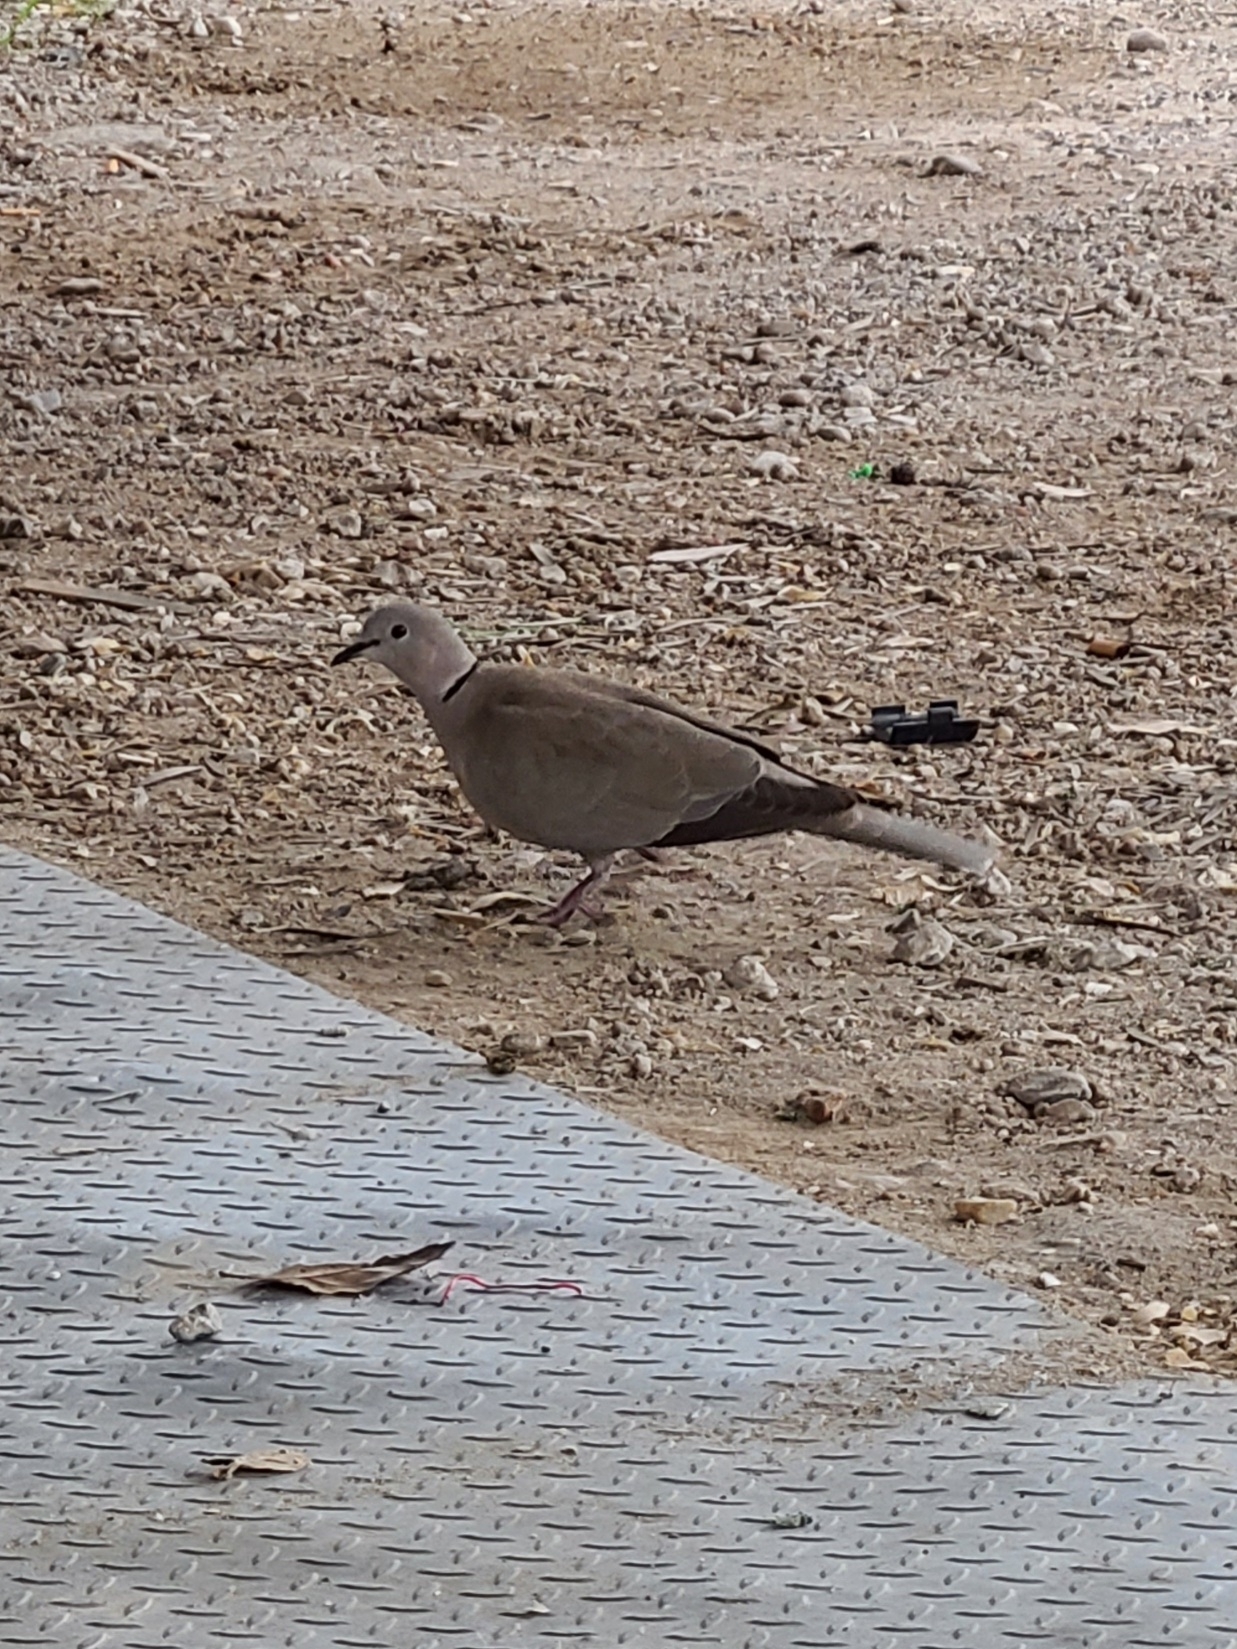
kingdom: Animalia
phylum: Chordata
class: Aves
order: Columbiformes
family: Columbidae
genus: Streptopelia
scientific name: Streptopelia decaocto
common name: Eurasian collared dove
